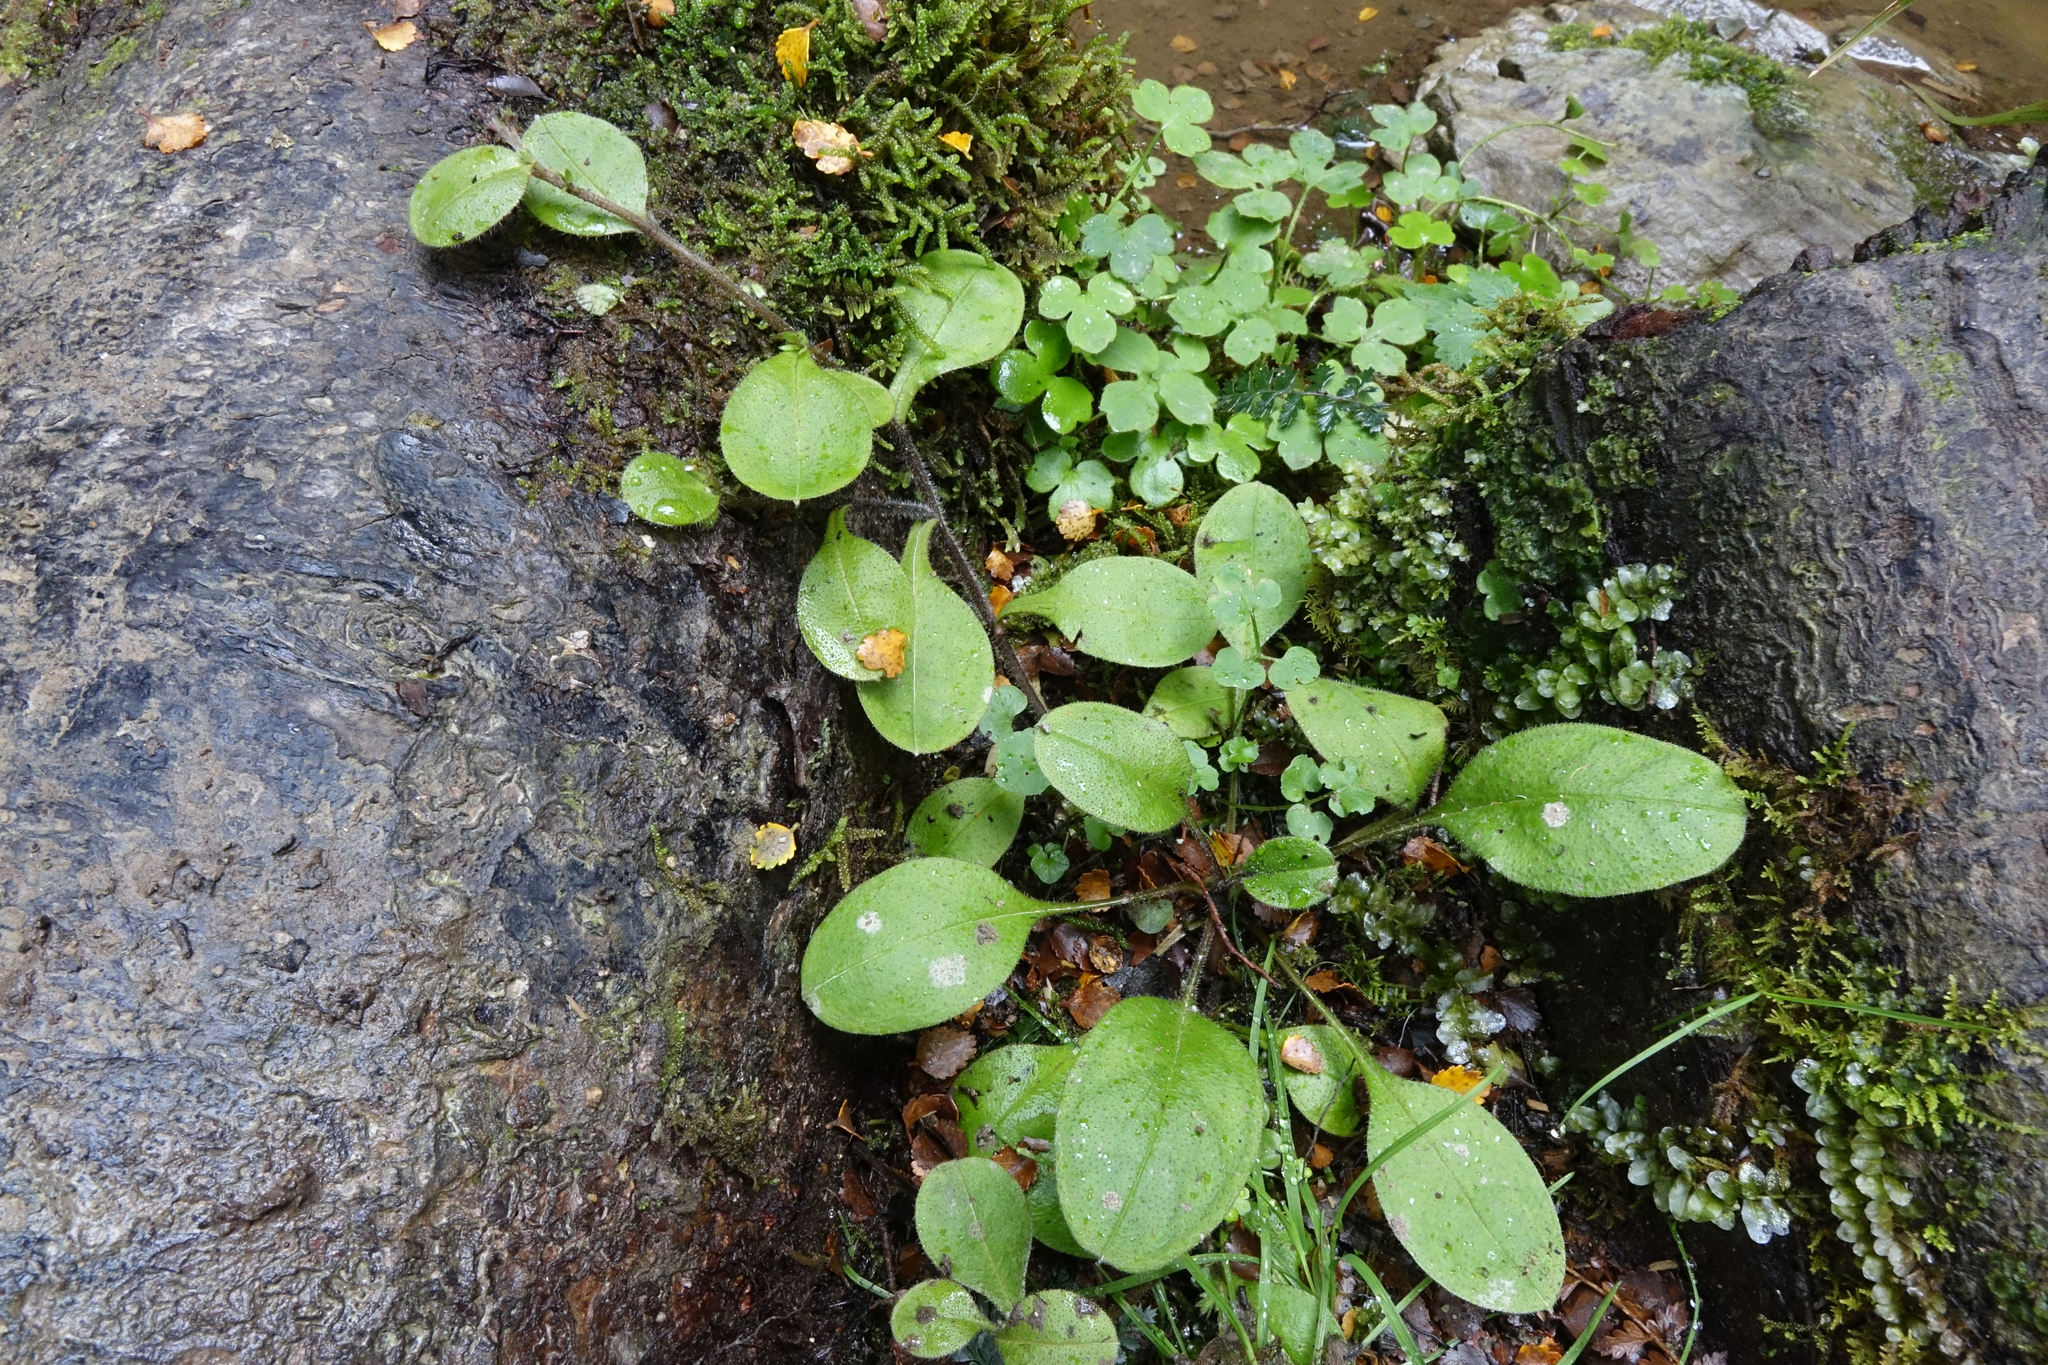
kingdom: Plantae
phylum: Tracheophyta
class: Magnoliopsida
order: Boraginales
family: Boraginaceae
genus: Myosotis
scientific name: Myosotis forsteri
